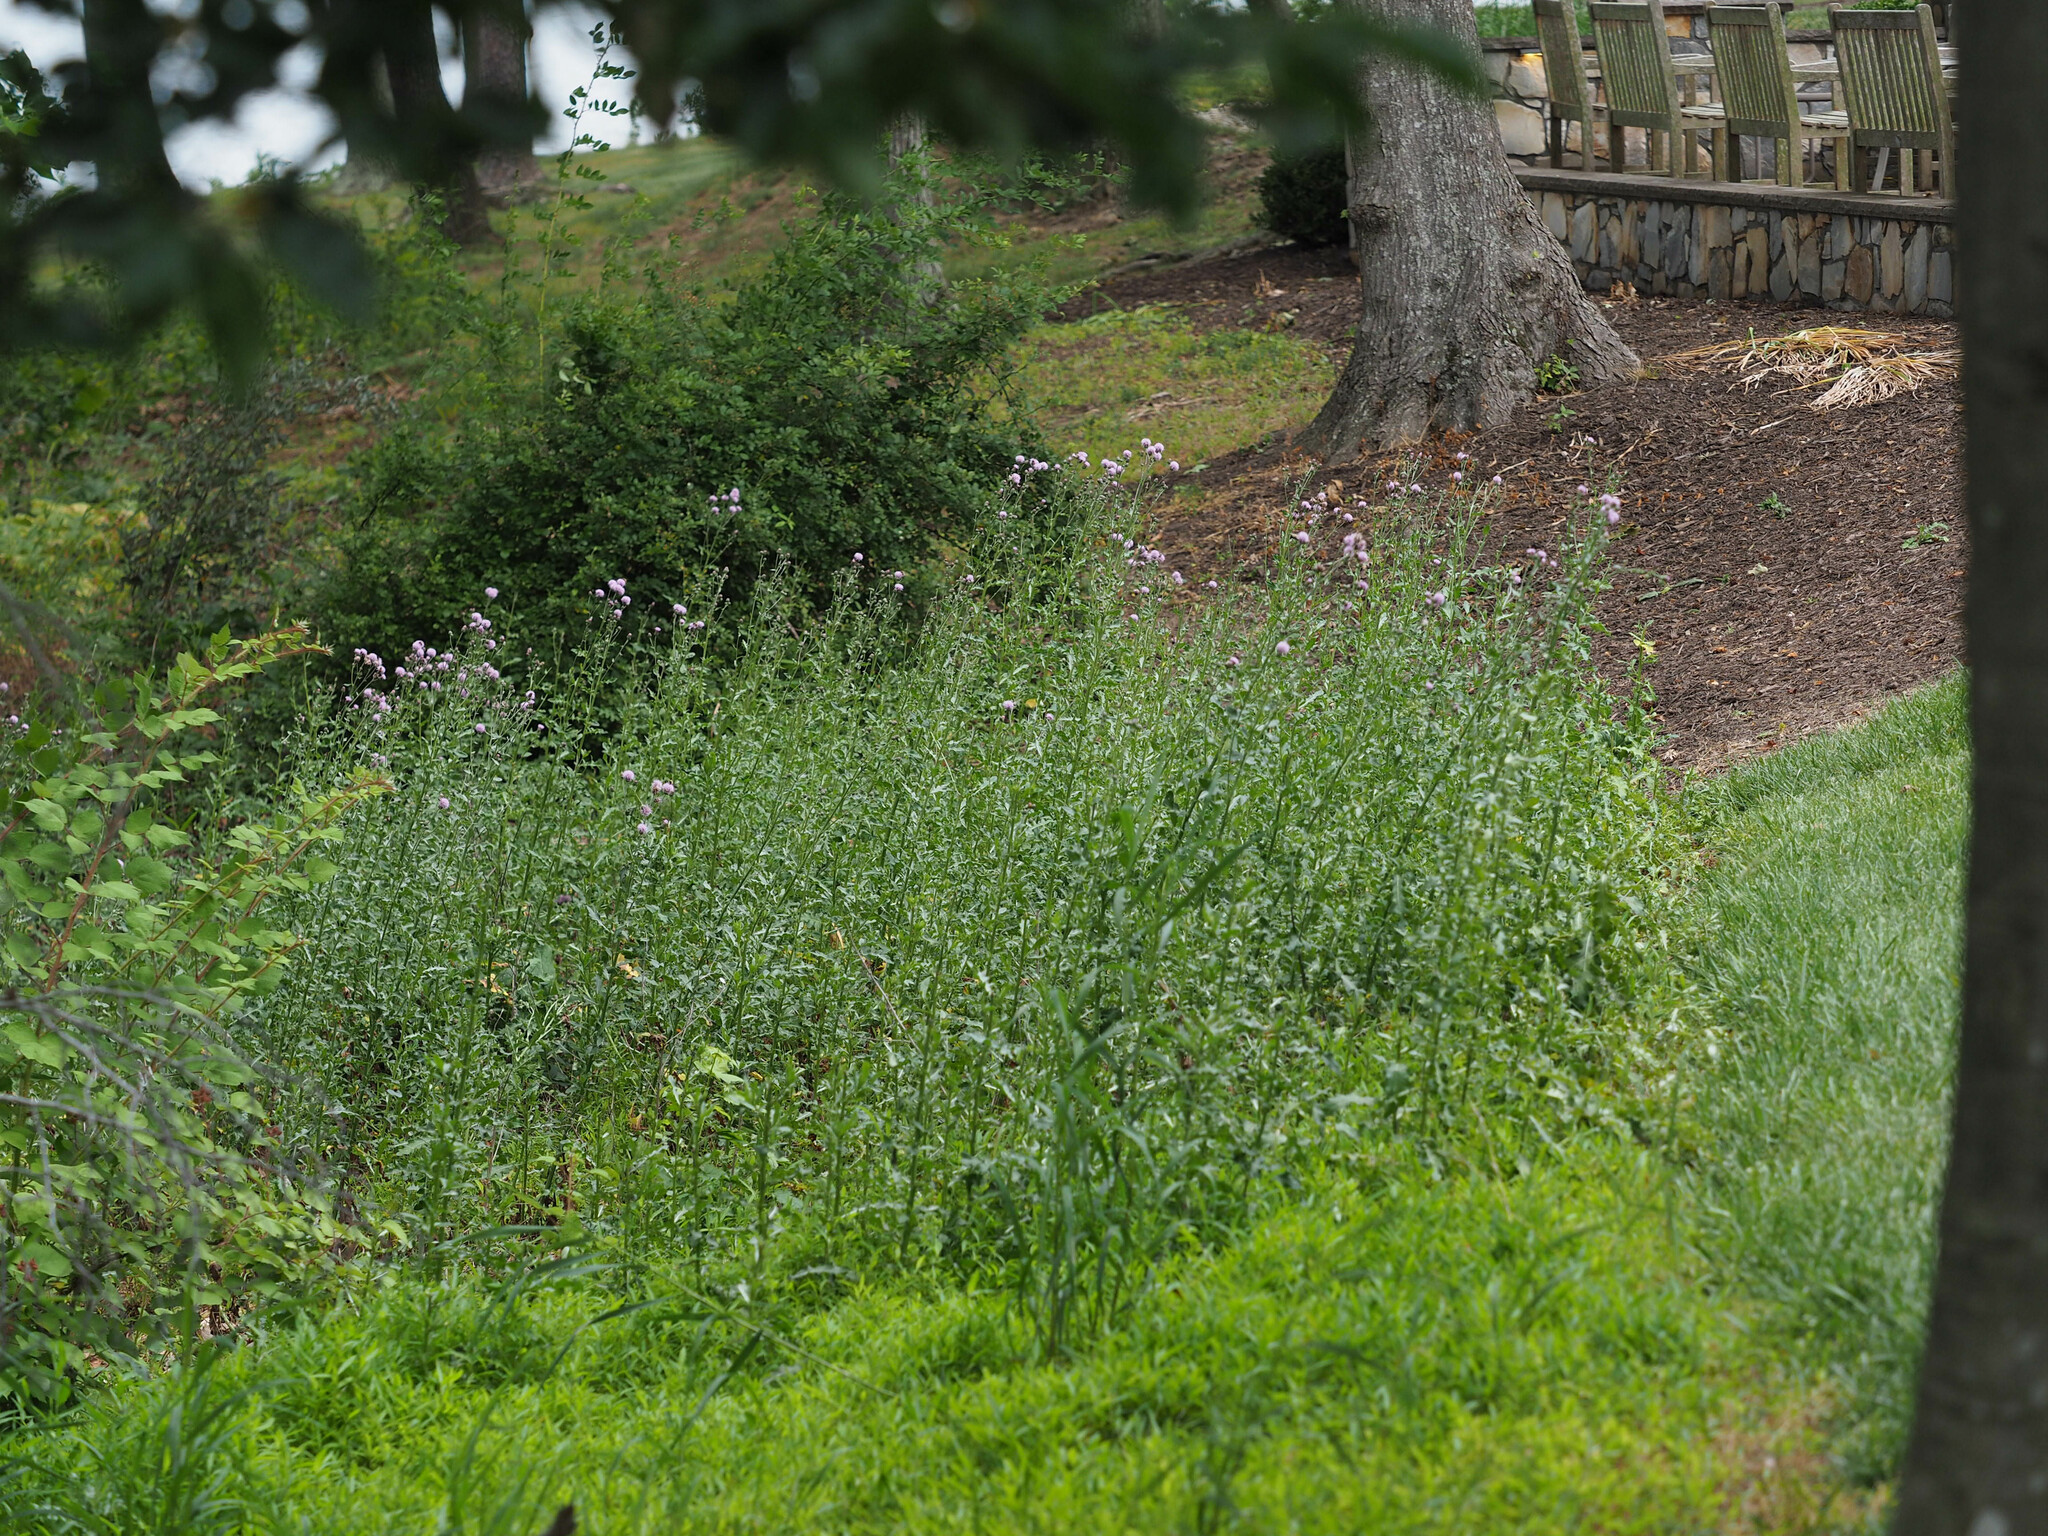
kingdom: Plantae
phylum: Tracheophyta
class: Magnoliopsida
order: Asterales
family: Asteraceae
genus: Cirsium
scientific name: Cirsium arvense
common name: Creeping thistle
